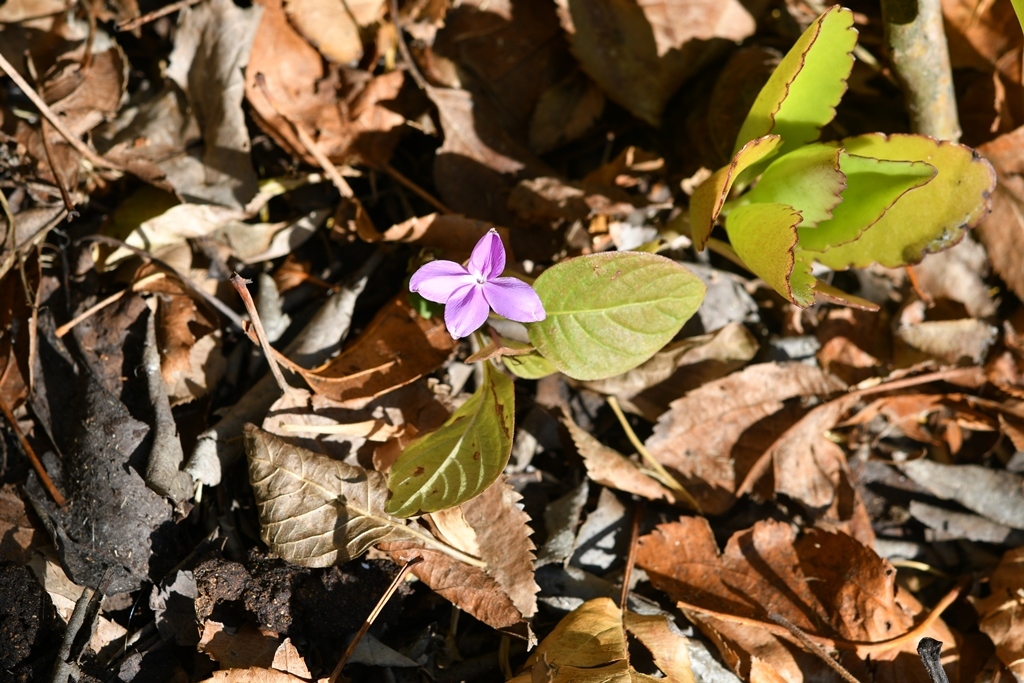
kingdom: Plantae
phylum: Tracheophyta
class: Magnoliopsida
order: Lamiales
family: Acanthaceae
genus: Pseuderanthemum
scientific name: Pseuderanthemum praecox
